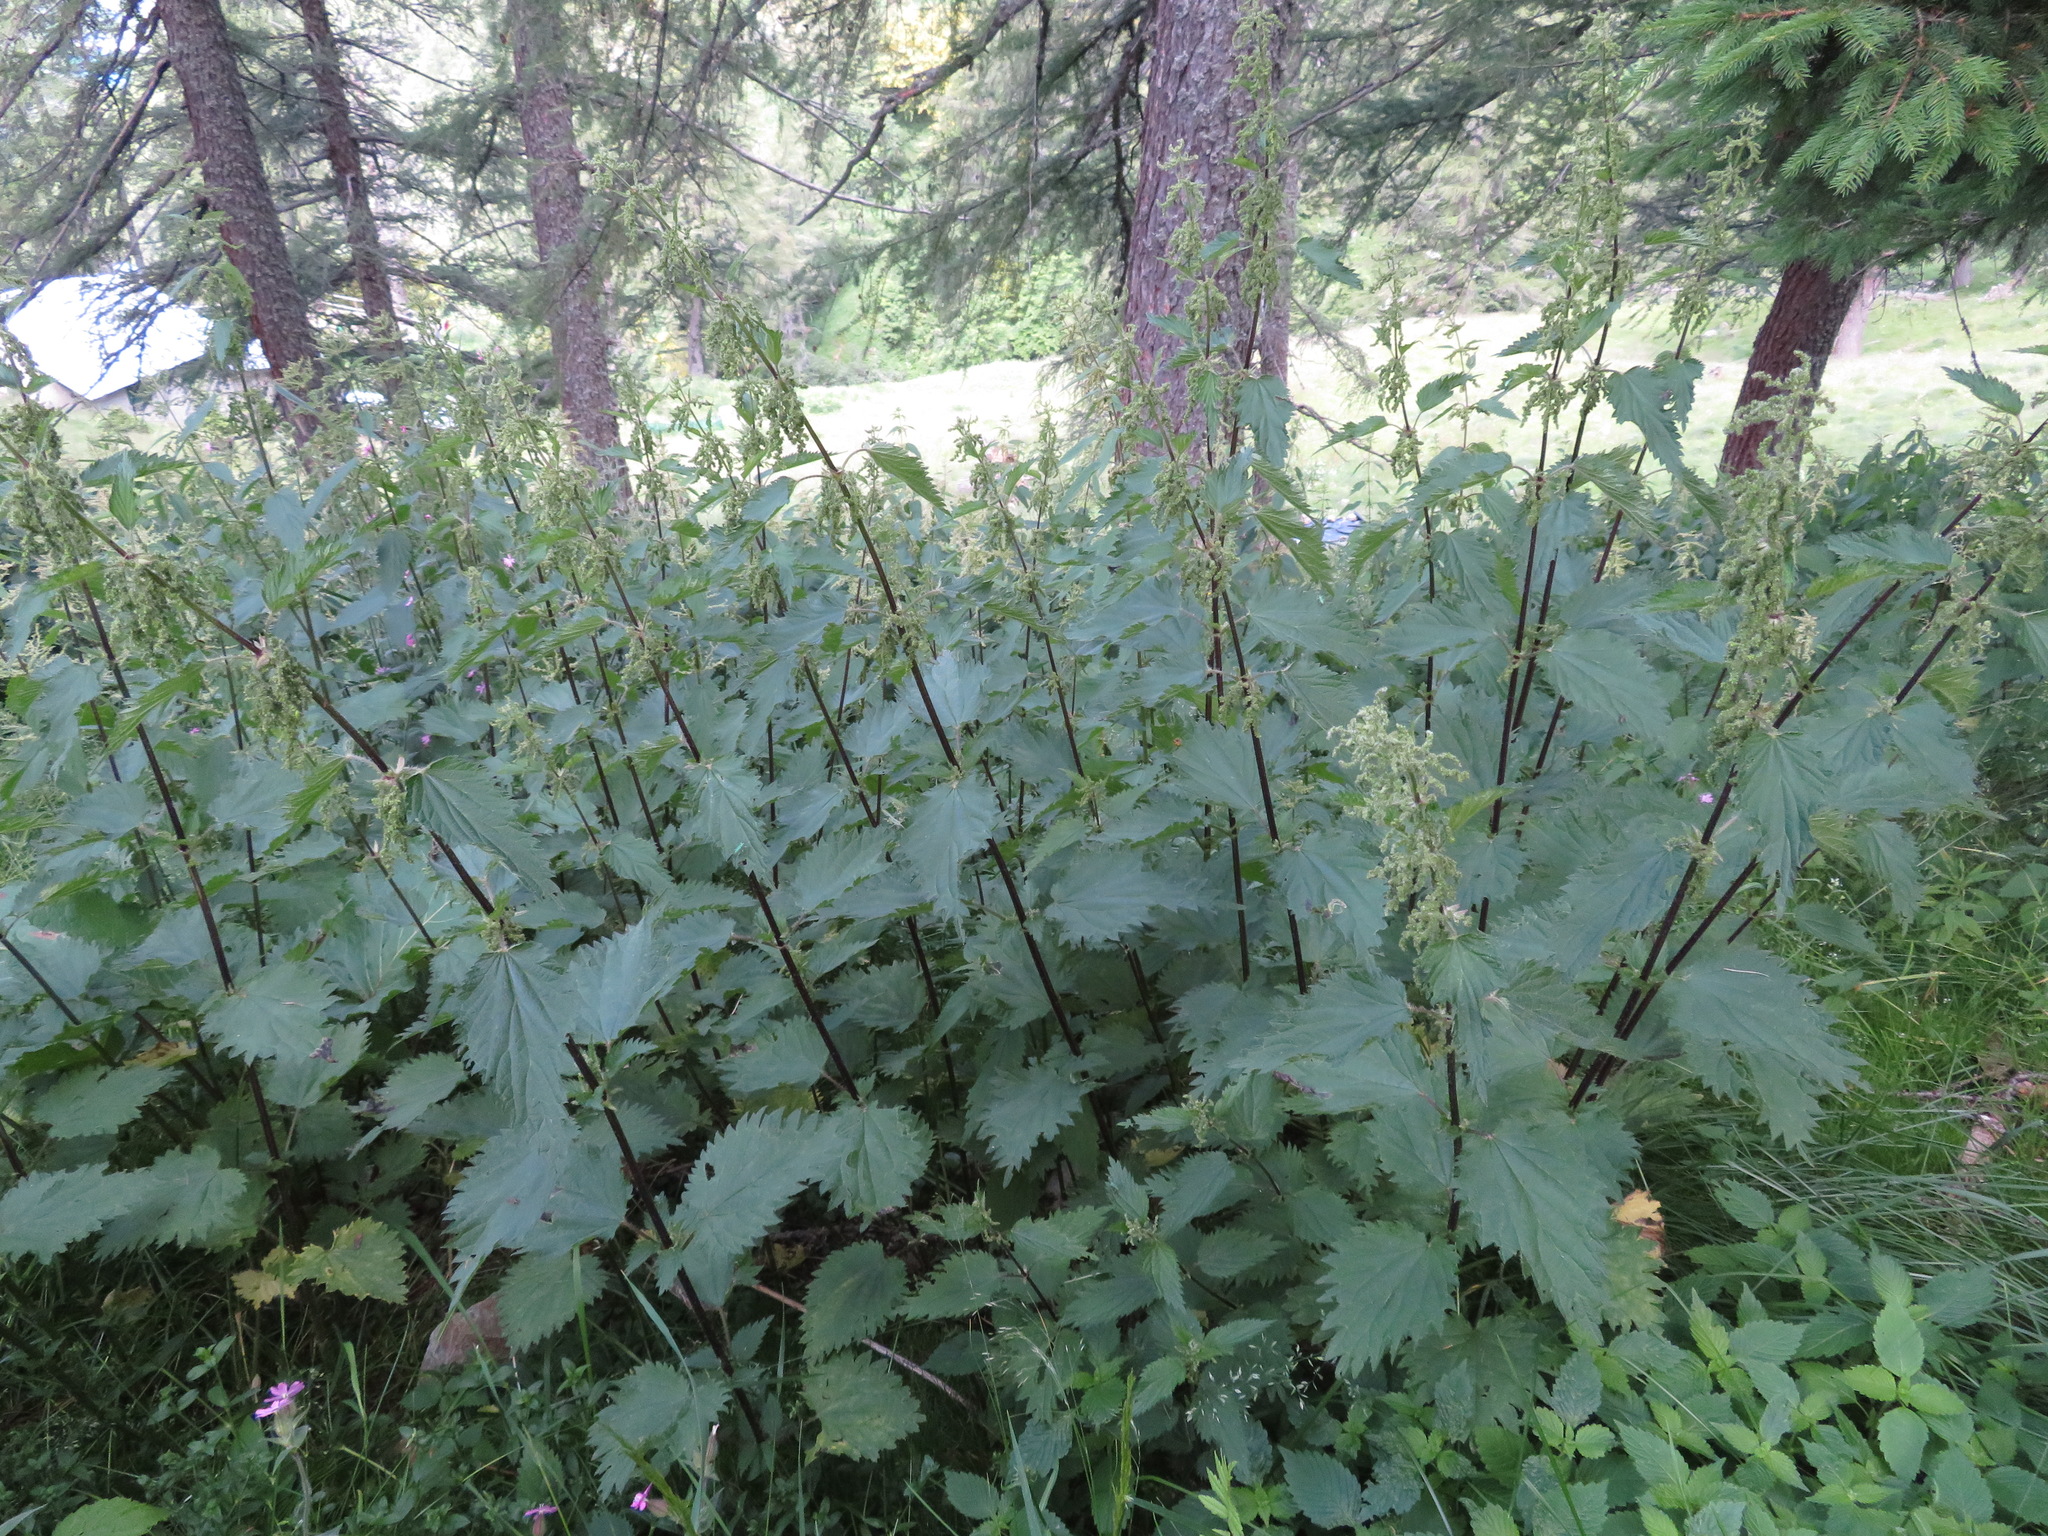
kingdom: Plantae
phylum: Tracheophyta
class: Magnoliopsida
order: Rosales
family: Urticaceae
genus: Urtica
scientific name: Urtica dioica
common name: Common nettle
